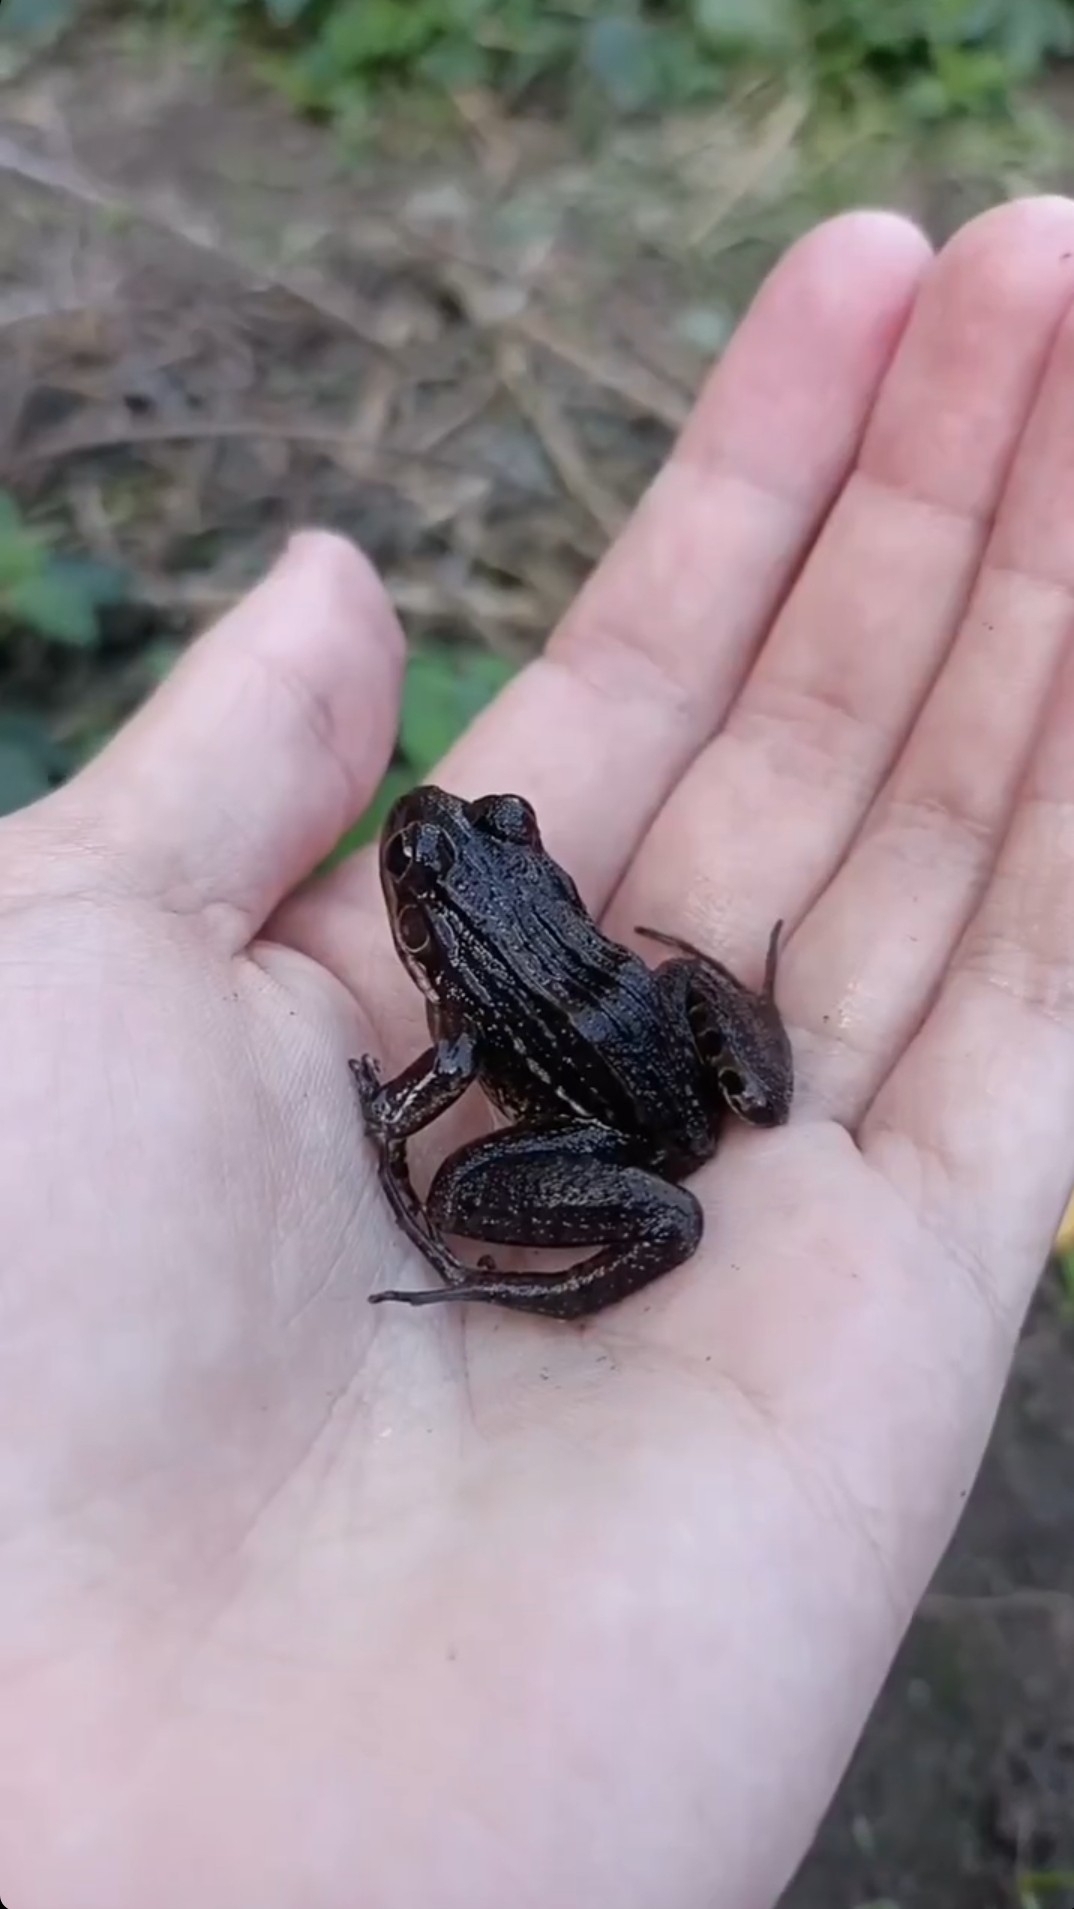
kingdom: Animalia
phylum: Chordata
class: Amphibia
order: Anura
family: Leptodactylidae
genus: Leptodactylus
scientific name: Leptodactylus latrans
